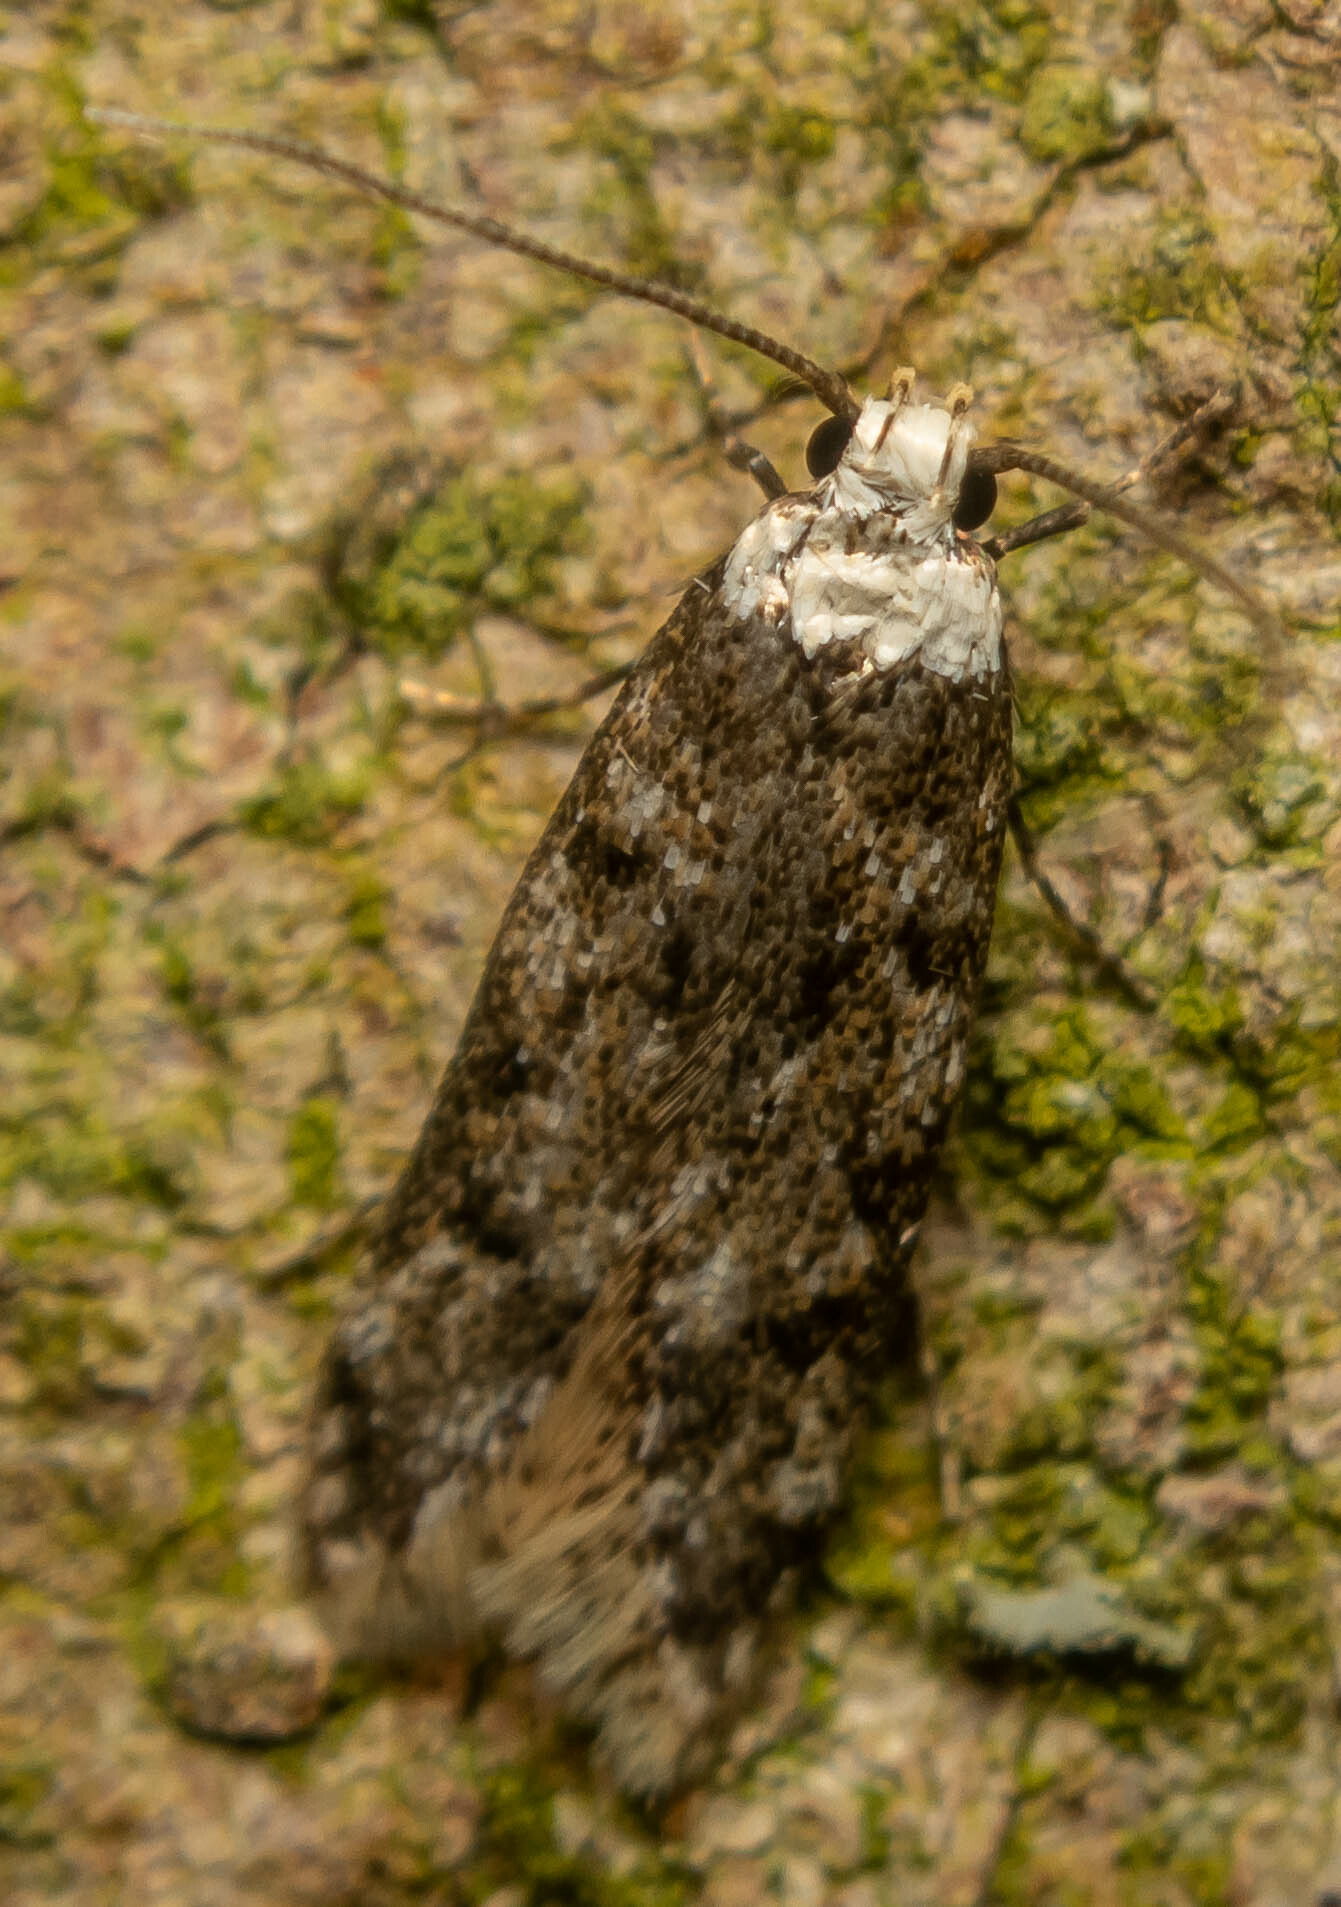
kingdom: Animalia
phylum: Arthropoda
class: Insecta
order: Lepidoptera
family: Oecophoridae
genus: Endrosis
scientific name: Endrosis sarcitrella
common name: White-shouldered house moth
